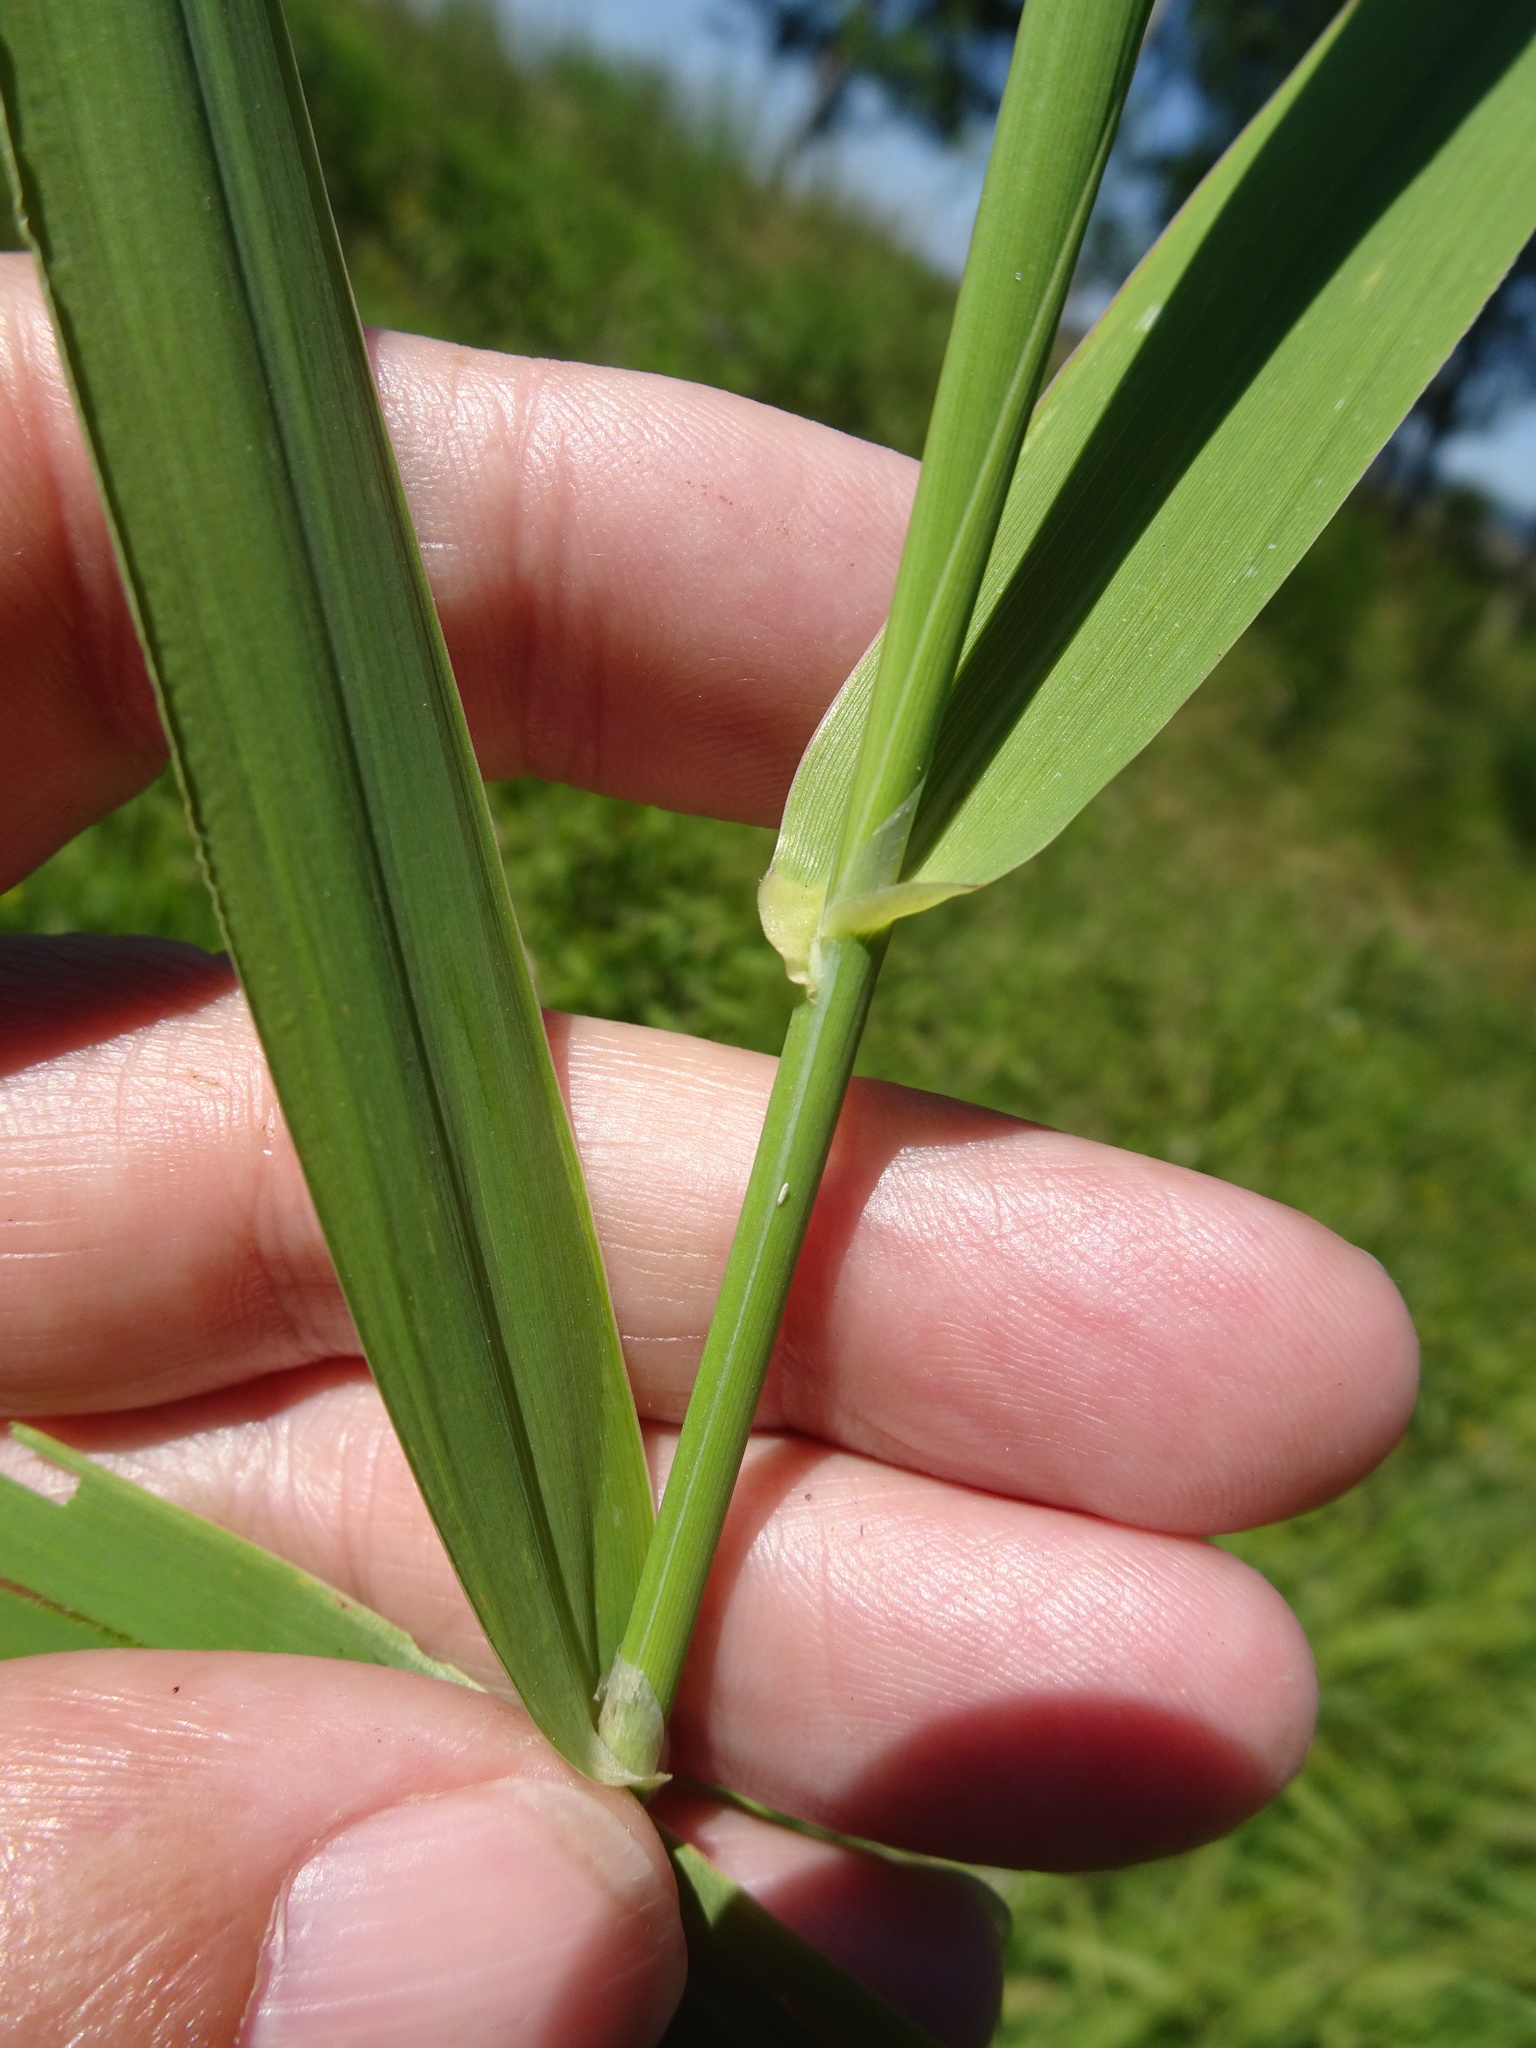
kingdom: Plantae
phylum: Tracheophyta
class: Liliopsida
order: Poales
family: Poaceae
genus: Phalaris
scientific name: Phalaris arundinacea
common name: Reed canary-grass
